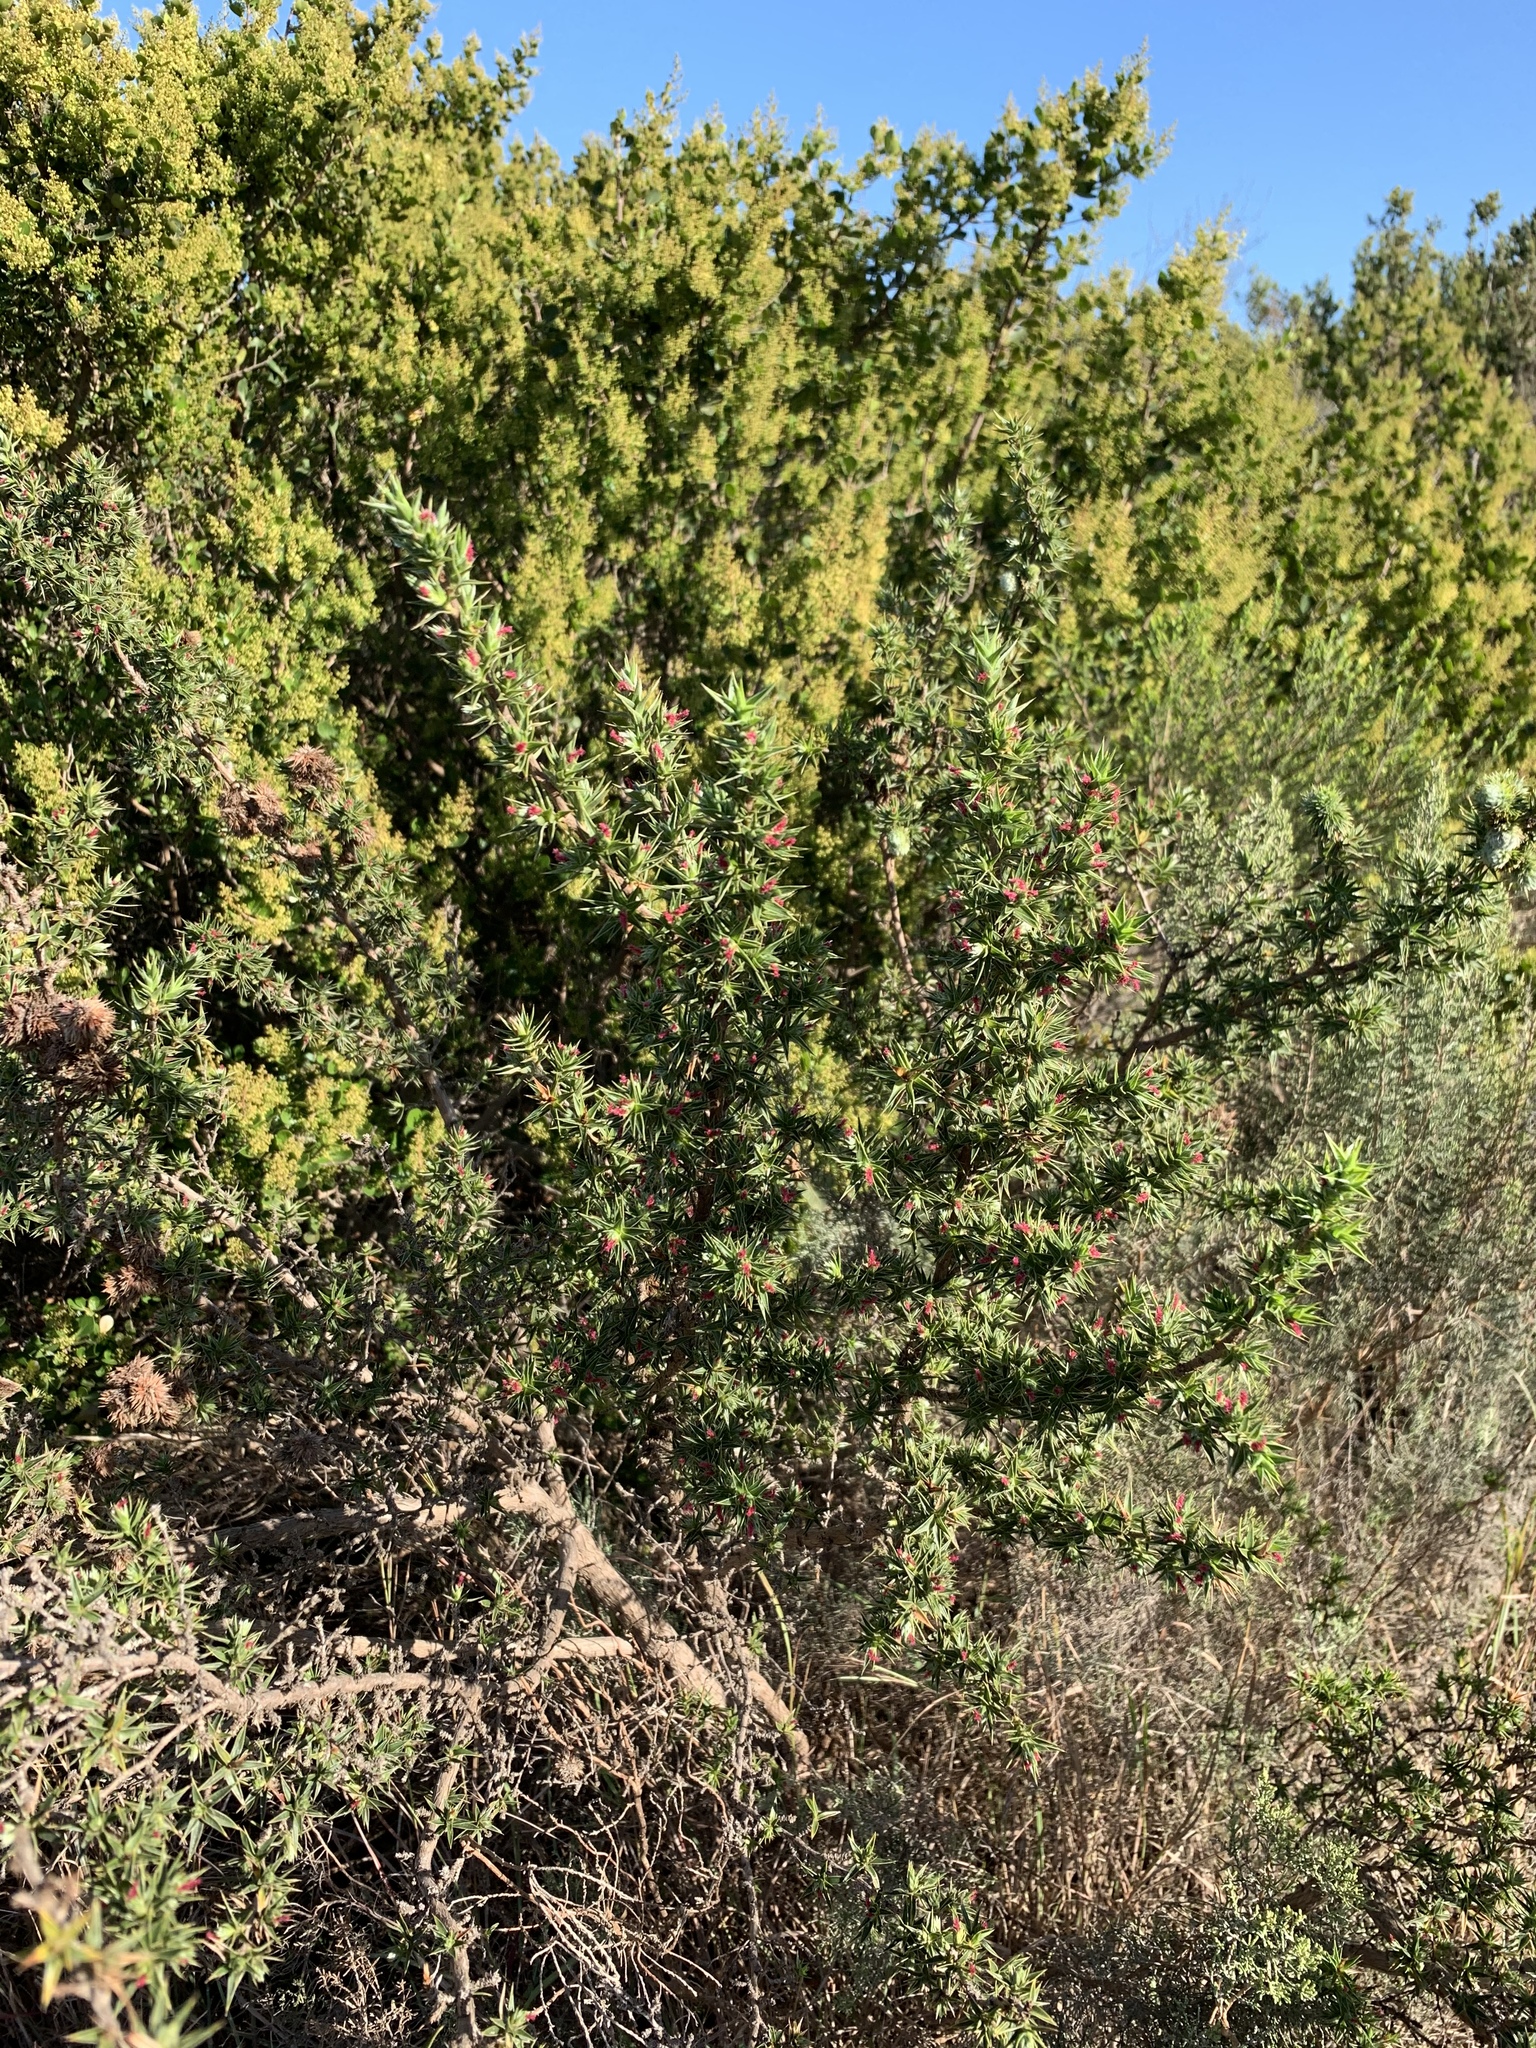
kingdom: Plantae
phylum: Tracheophyta
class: Magnoliopsida
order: Rosales
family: Rosaceae
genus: Cliffortia
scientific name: Cliffortia ruscifolia
